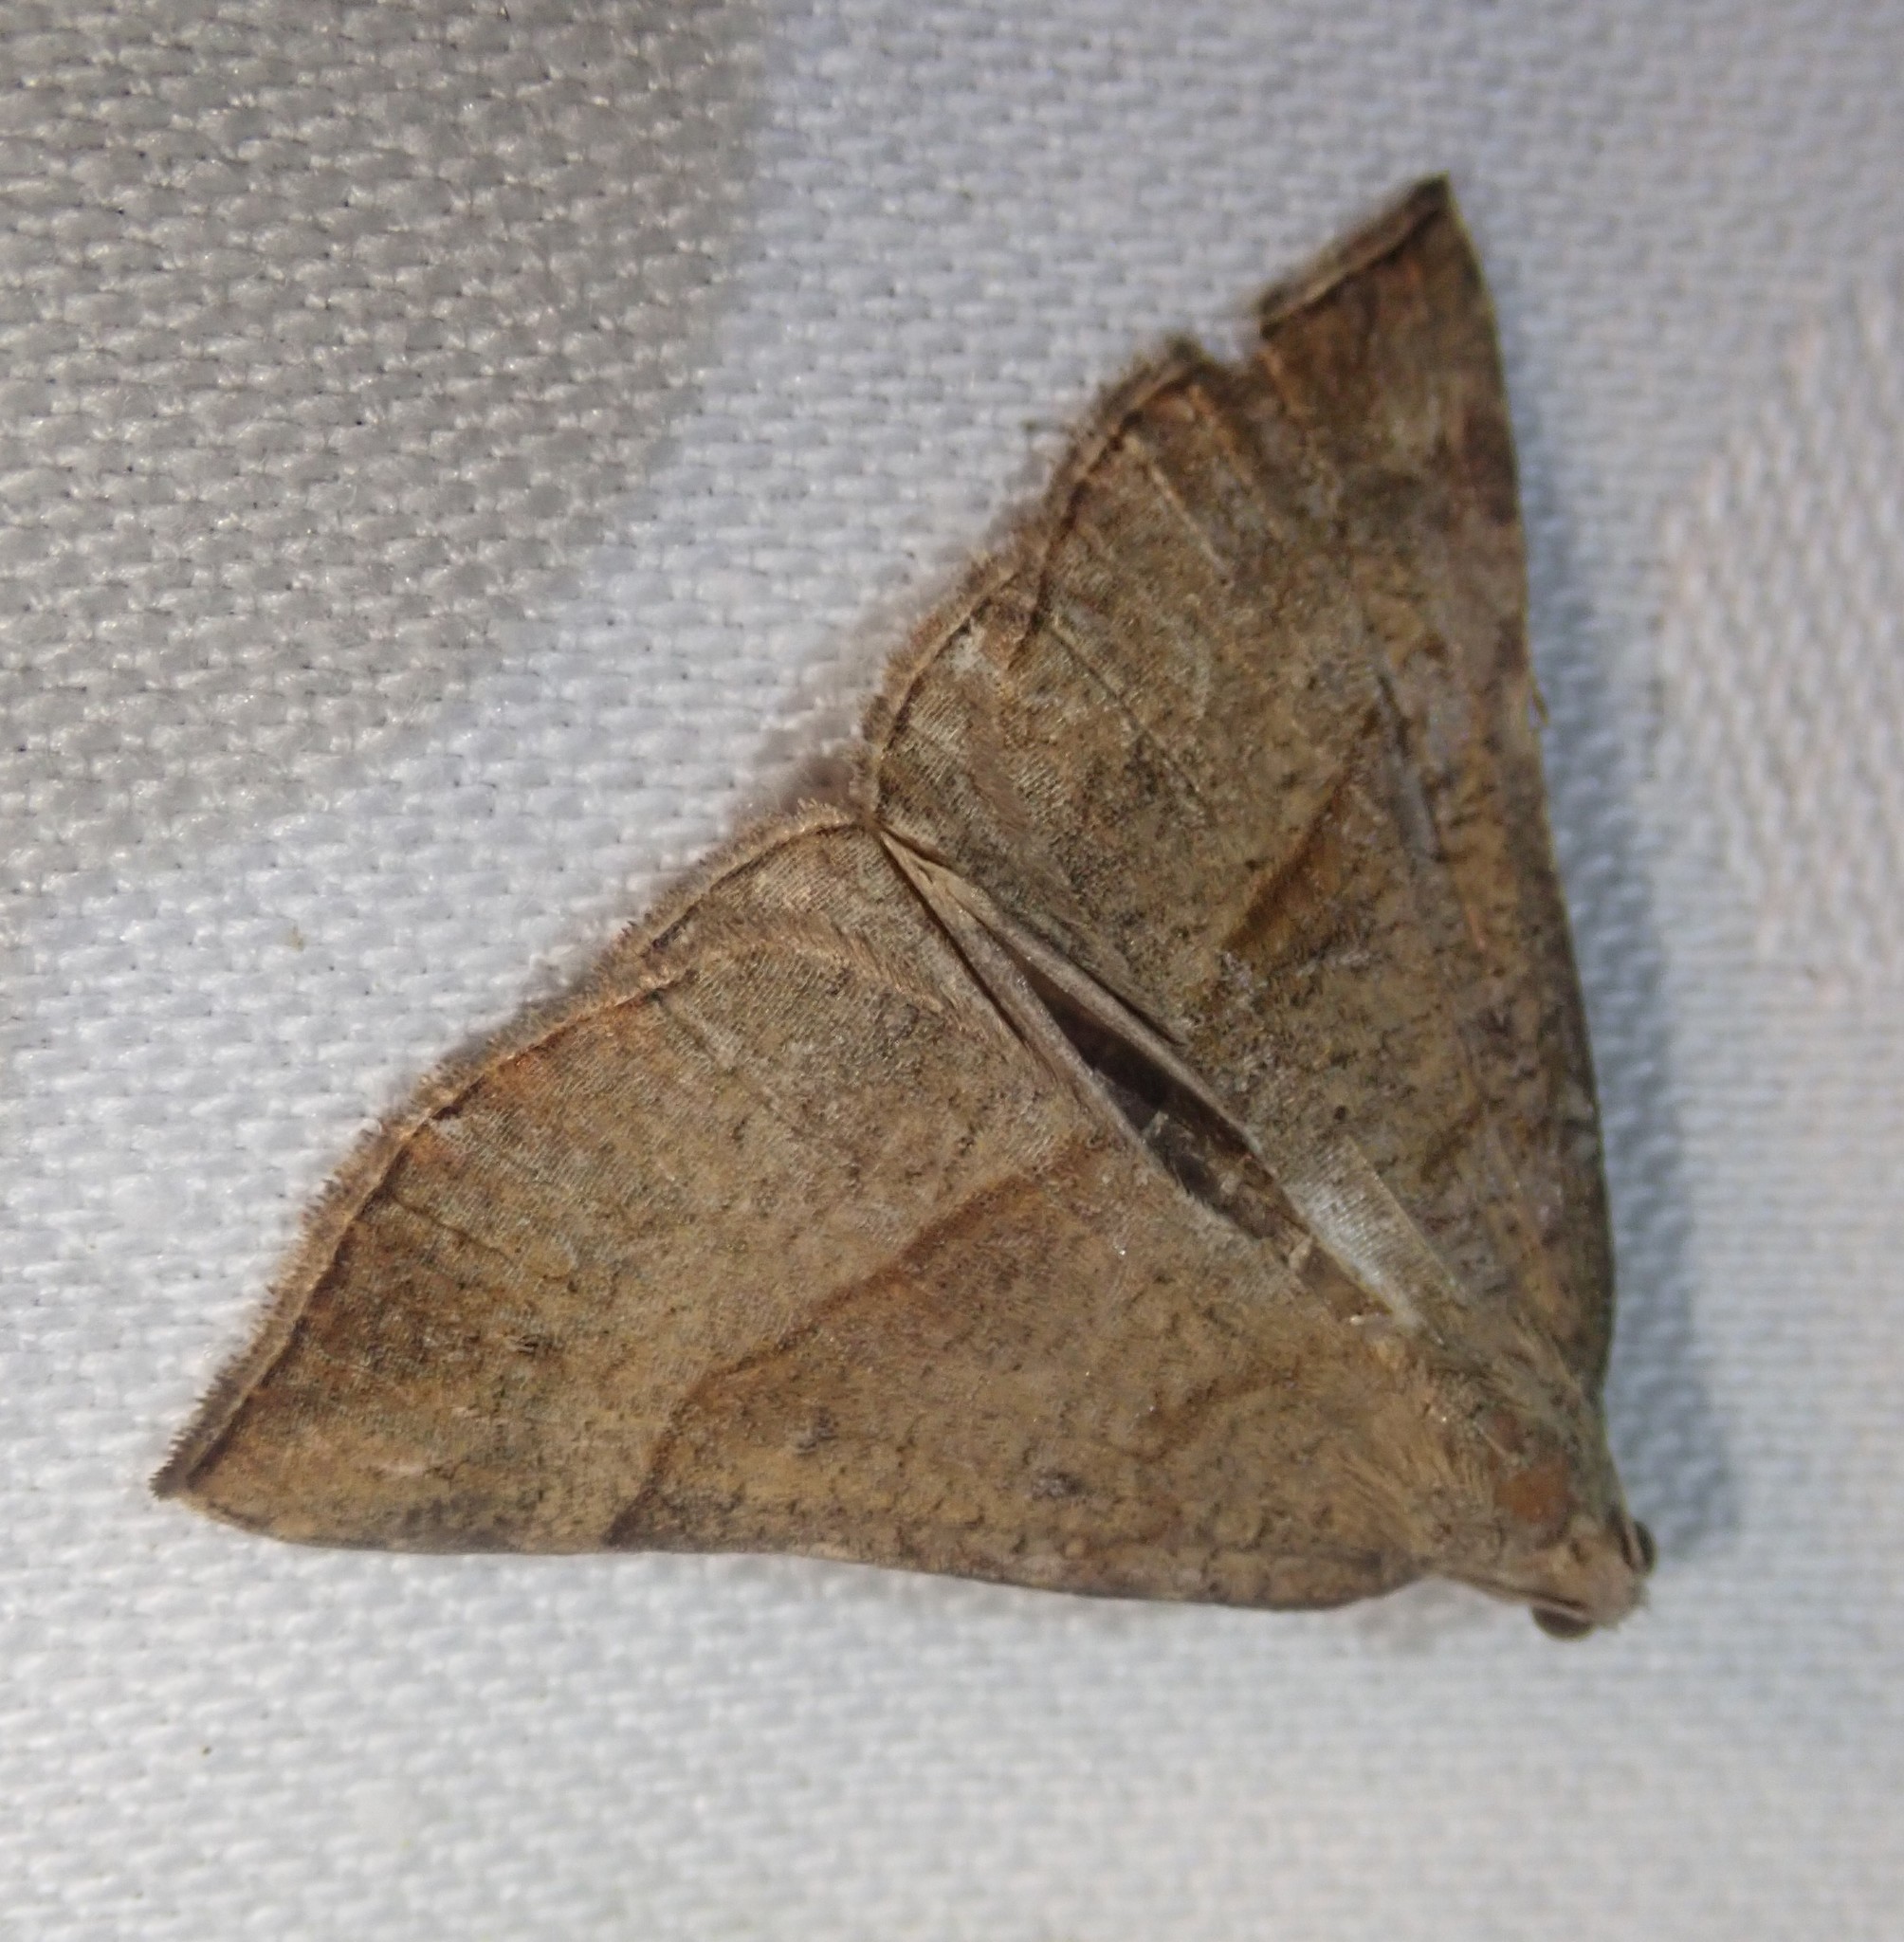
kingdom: Animalia
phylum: Arthropoda
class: Insecta
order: Lepidoptera
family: Erebidae
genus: Hypena
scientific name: Hypena proboscidalis
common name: Snout
